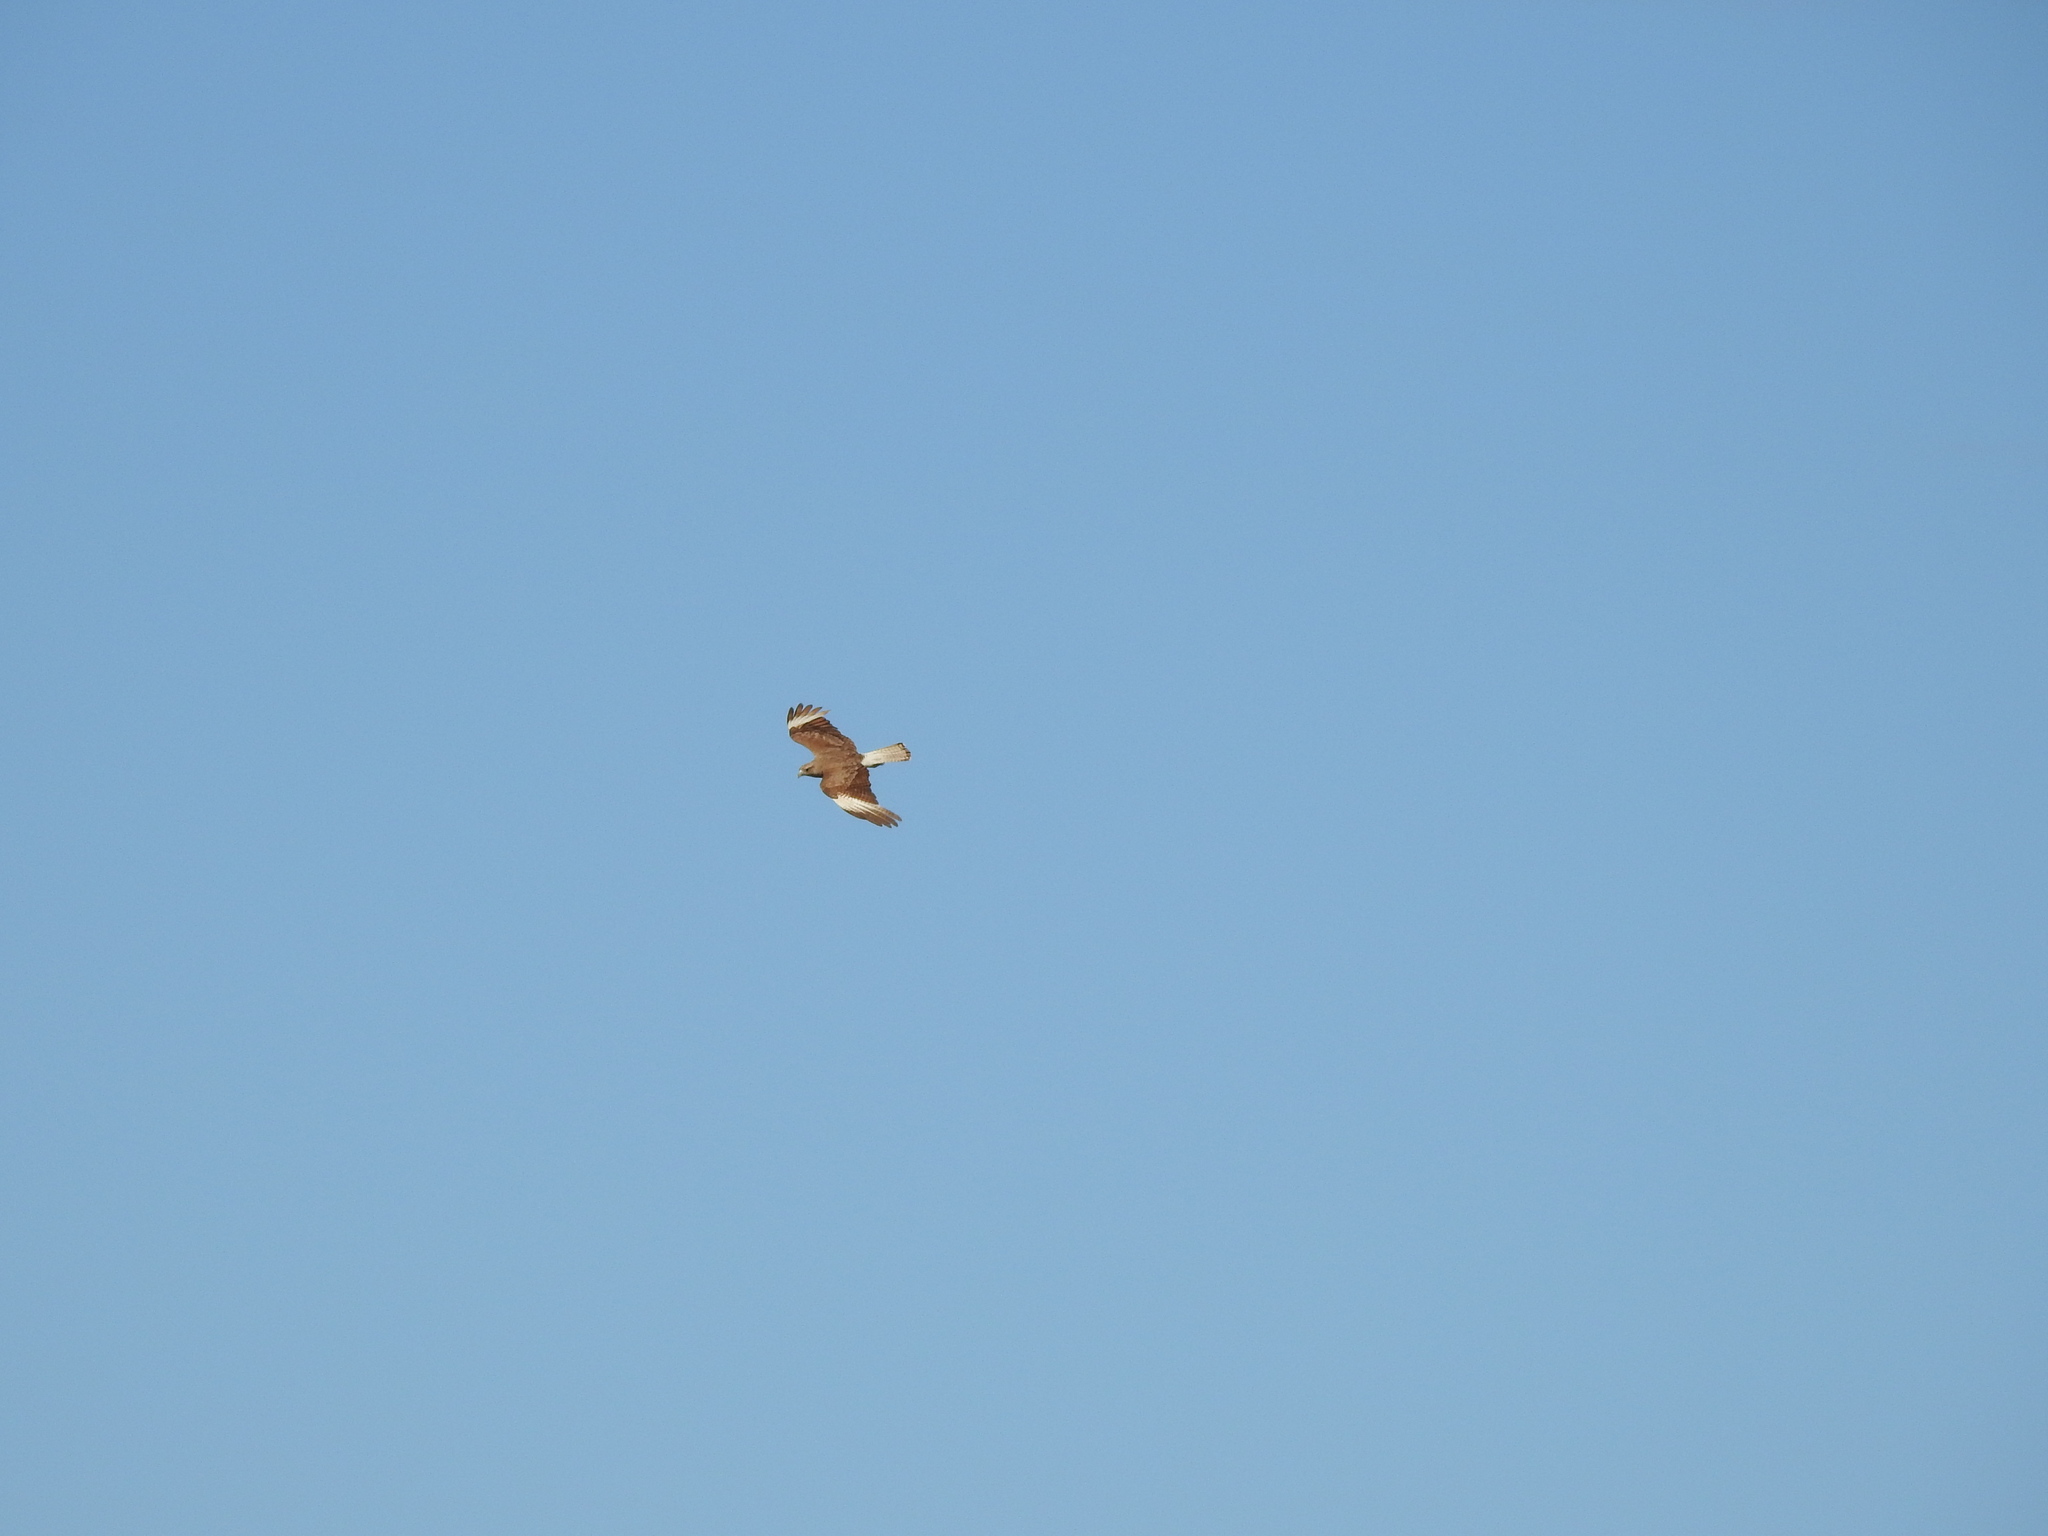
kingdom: Animalia
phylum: Chordata
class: Aves
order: Falconiformes
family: Falconidae
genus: Daptrius
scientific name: Daptrius
